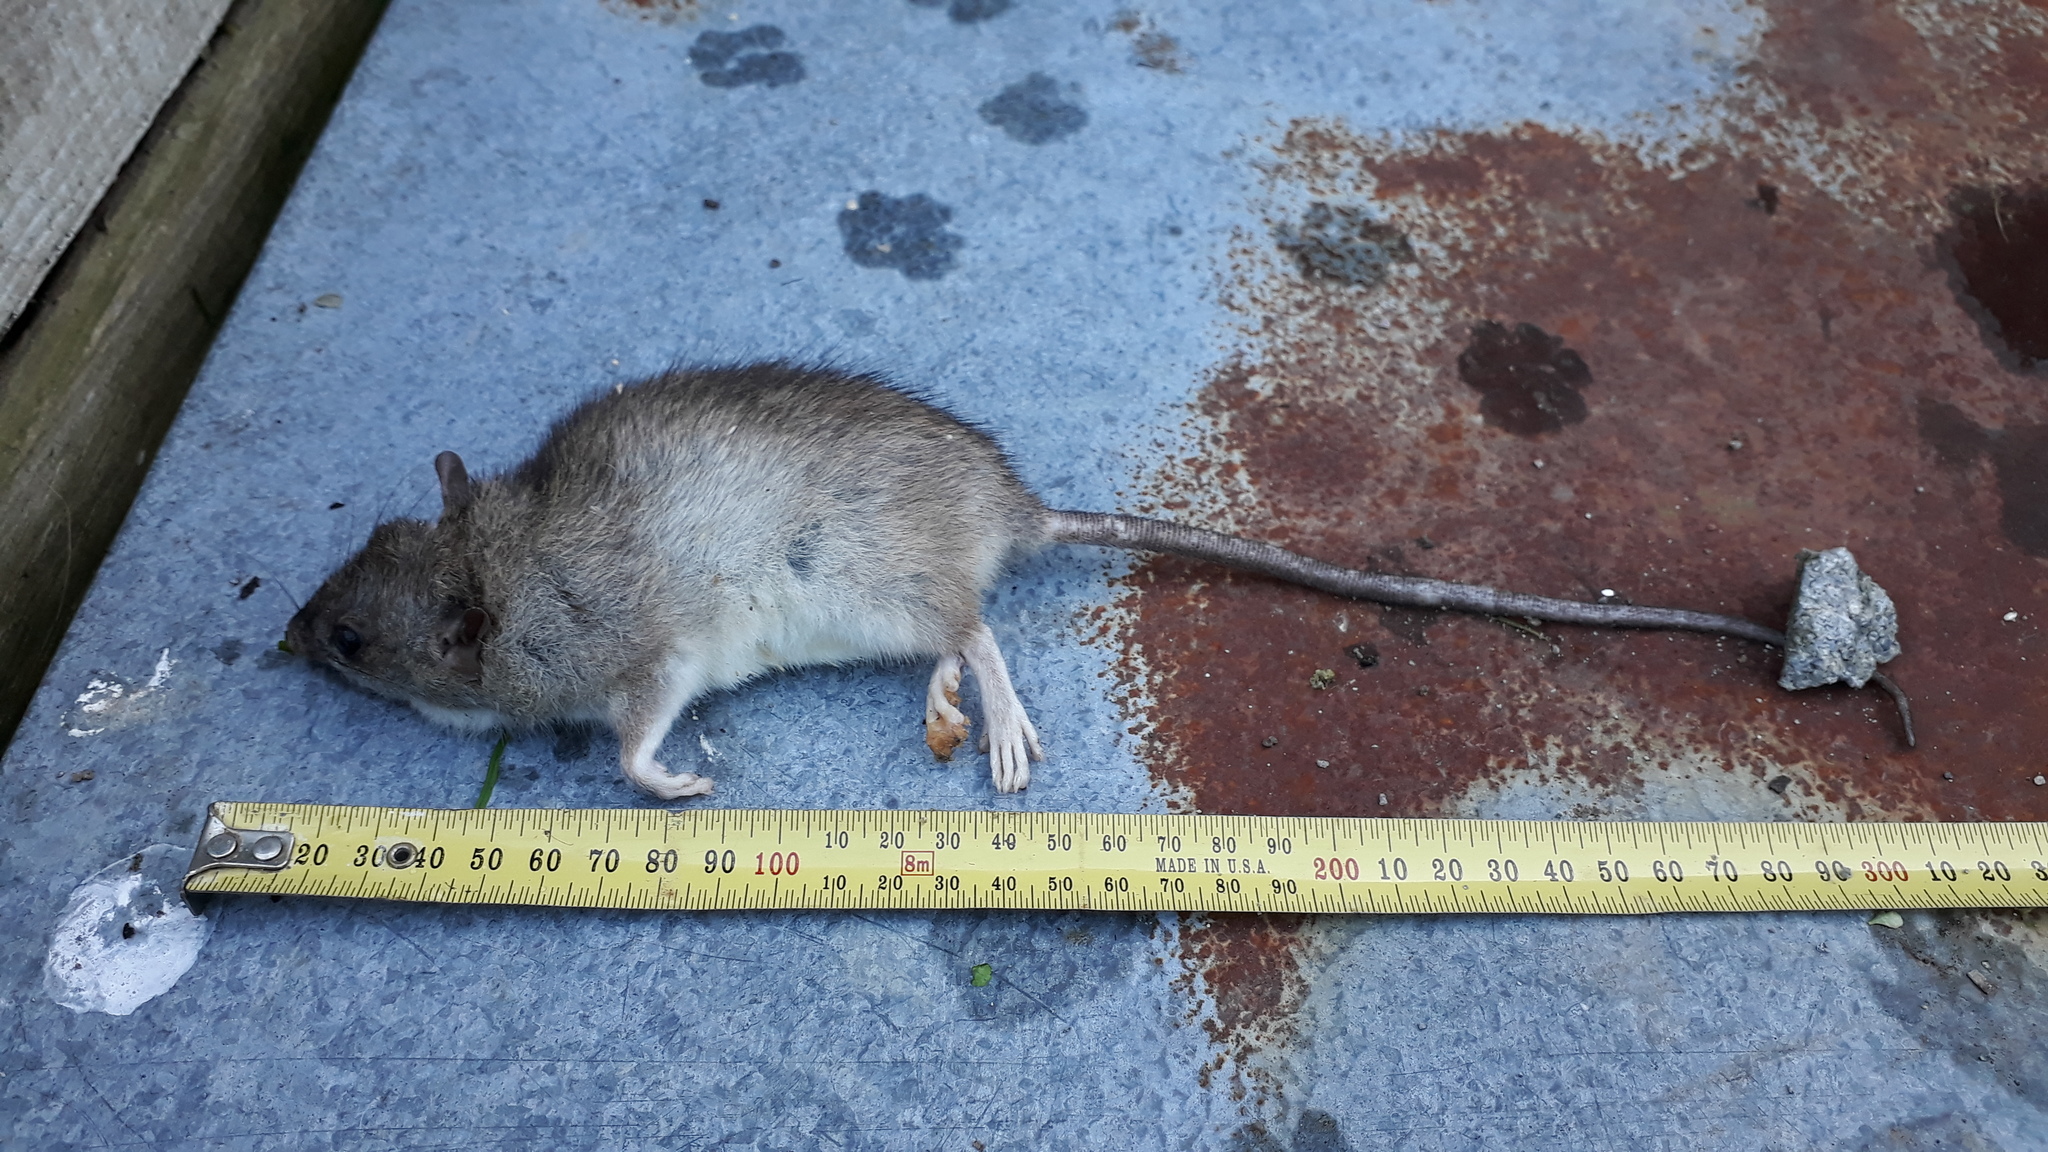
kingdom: Animalia
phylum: Chordata
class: Mammalia
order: Rodentia
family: Muridae
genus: Rattus
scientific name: Rattus rattus
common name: Black rat
